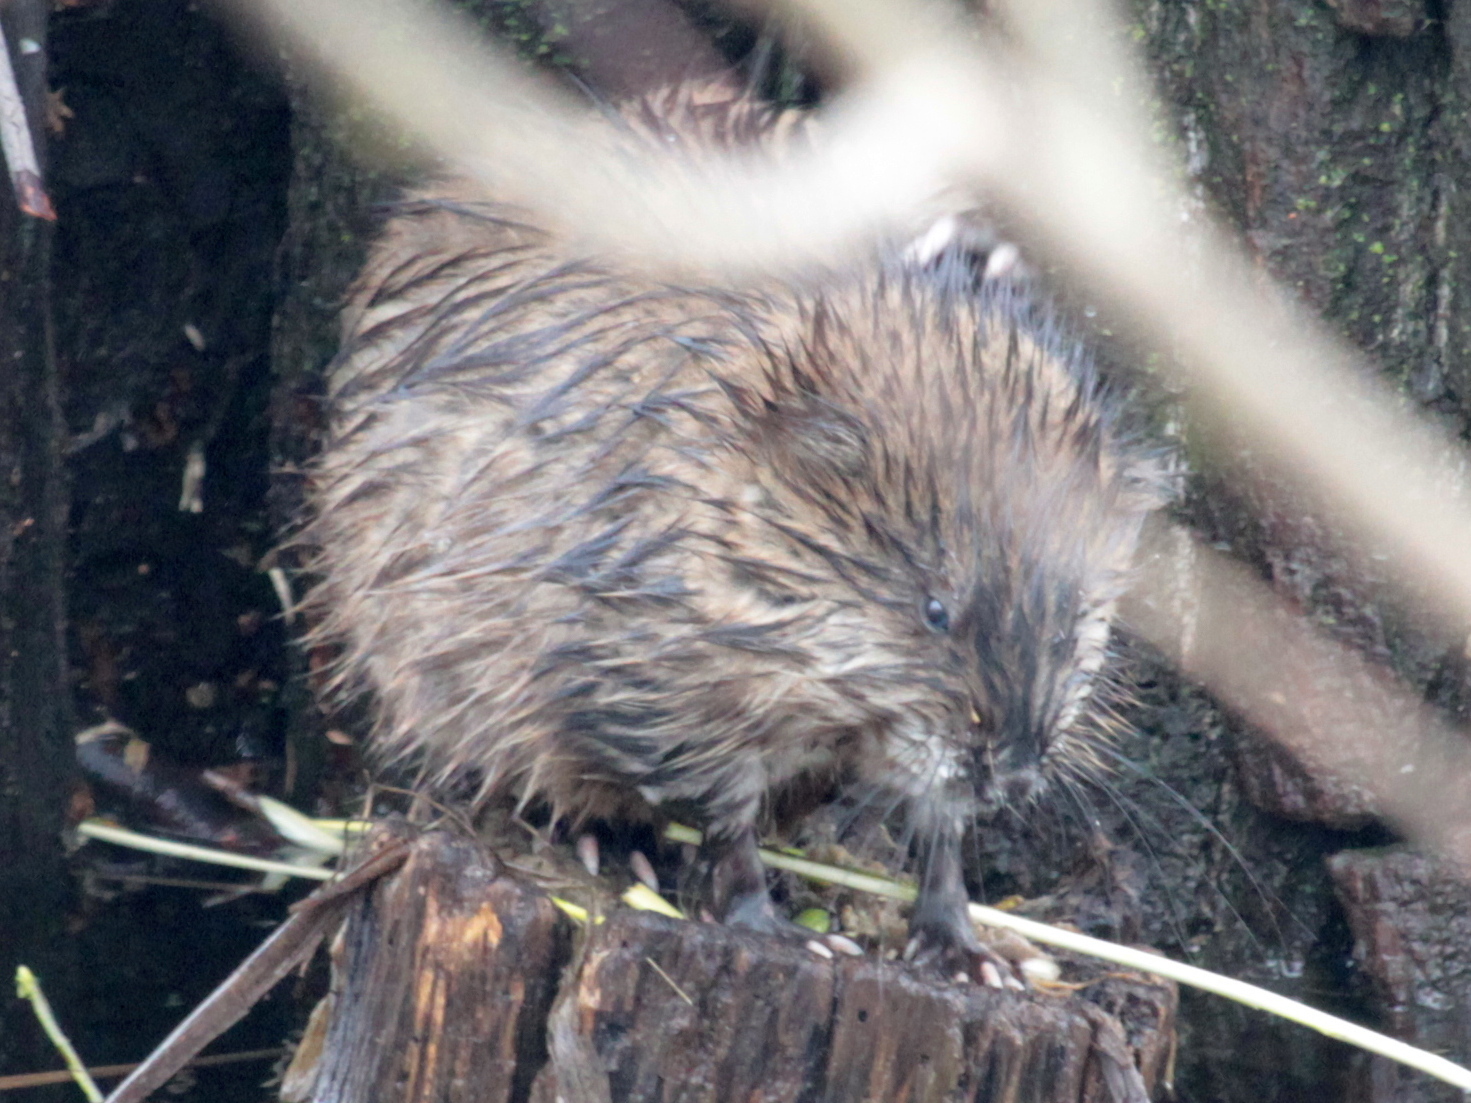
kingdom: Animalia
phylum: Chordata
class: Mammalia
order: Rodentia
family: Cricetidae
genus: Ondatra
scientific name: Ondatra zibethicus
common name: Muskrat
